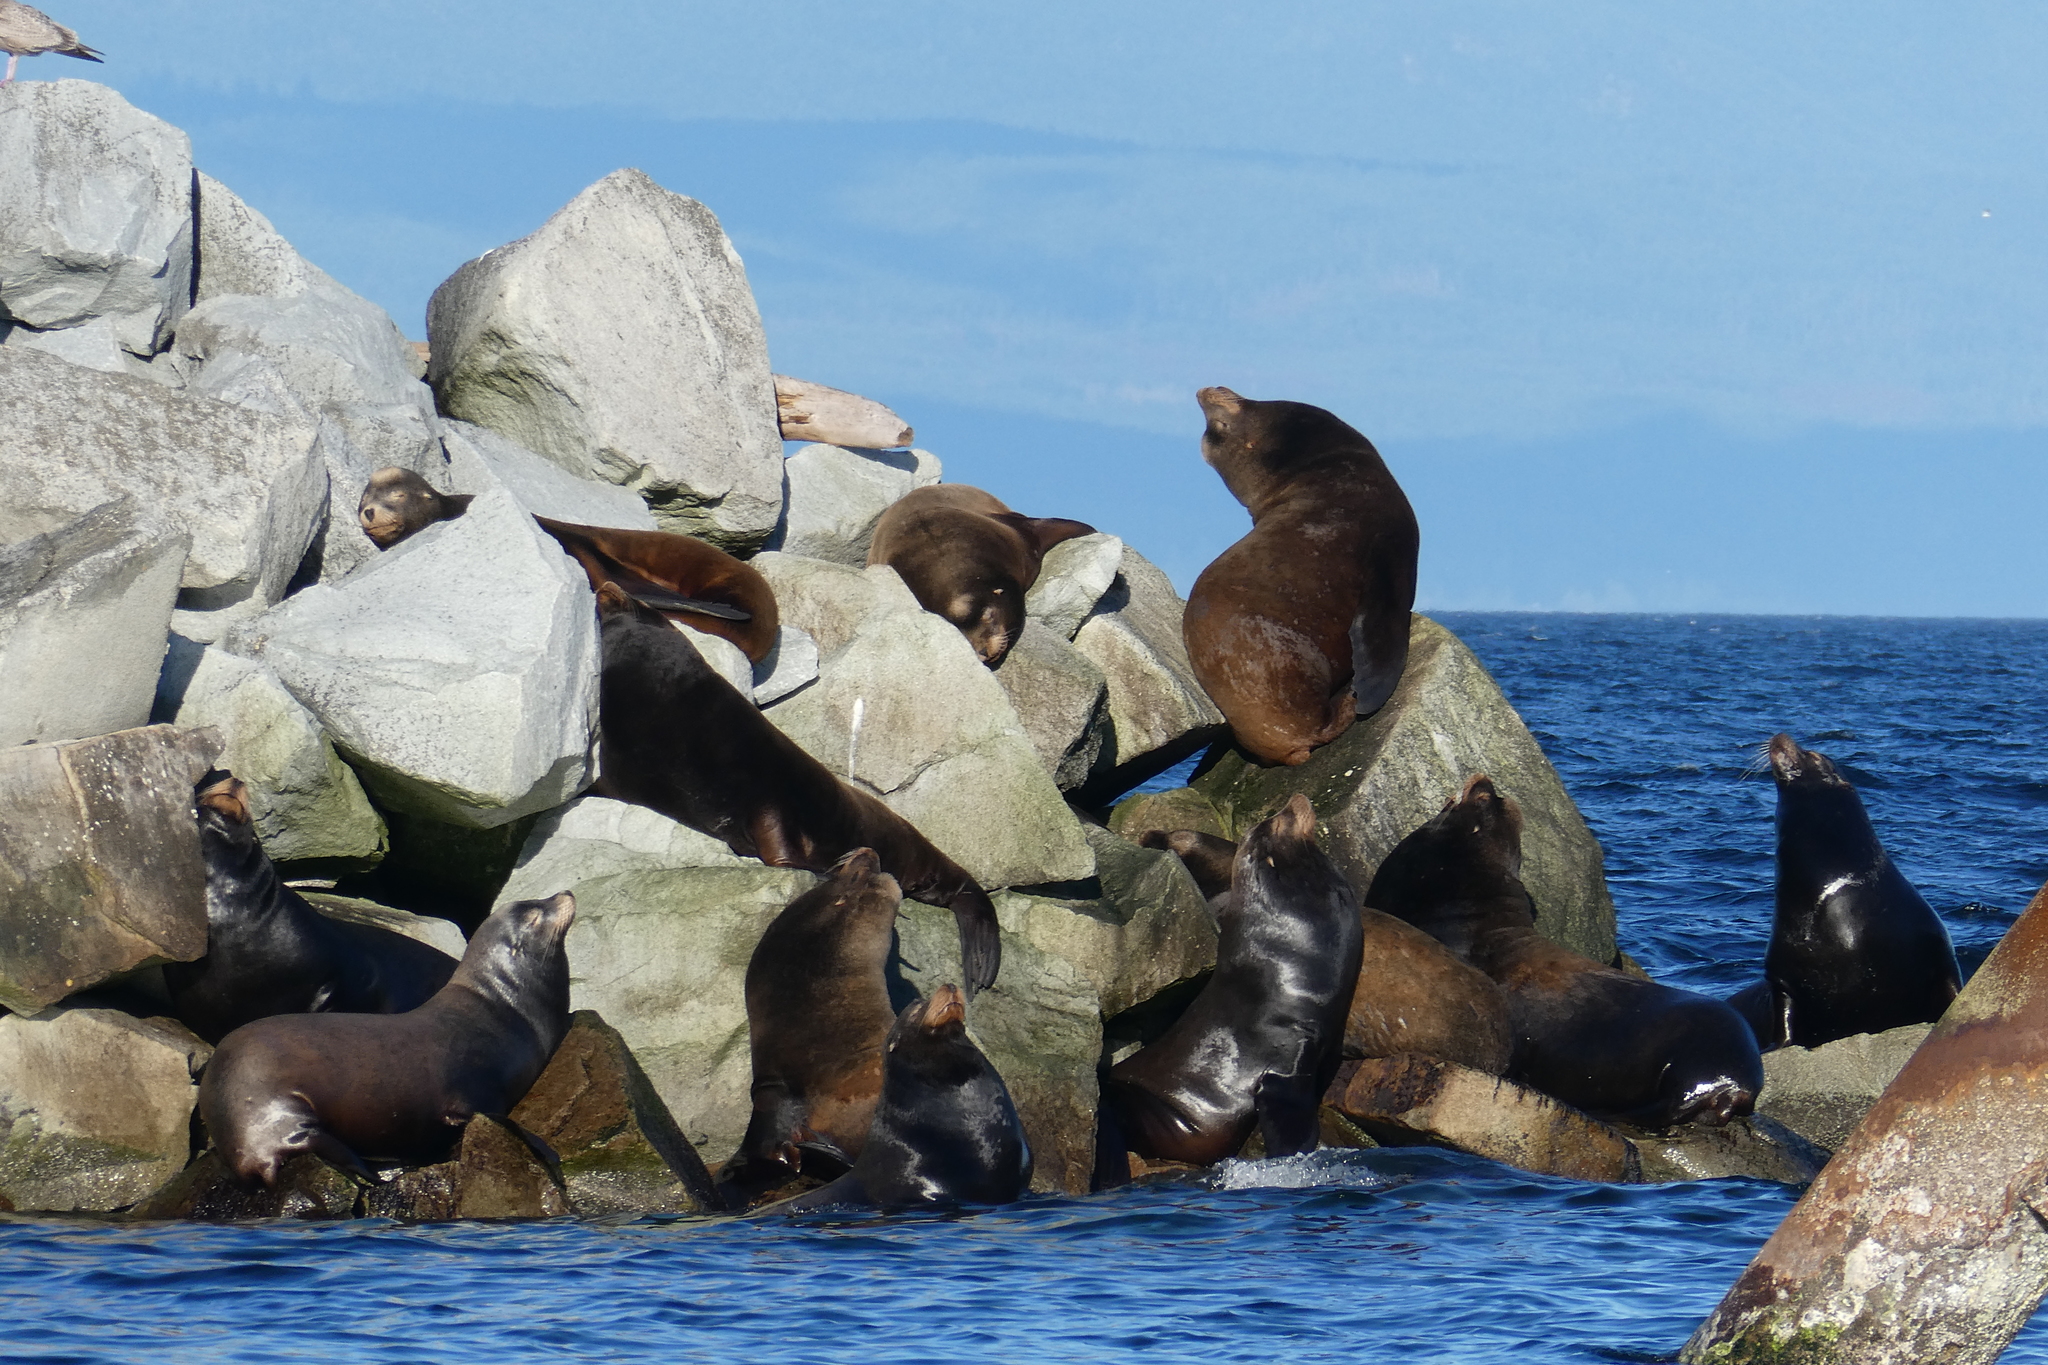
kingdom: Animalia
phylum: Chordata
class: Mammalia
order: Carnivora
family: Otariidae
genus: Zalophus
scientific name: Zalophus californianus
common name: California sea lion
